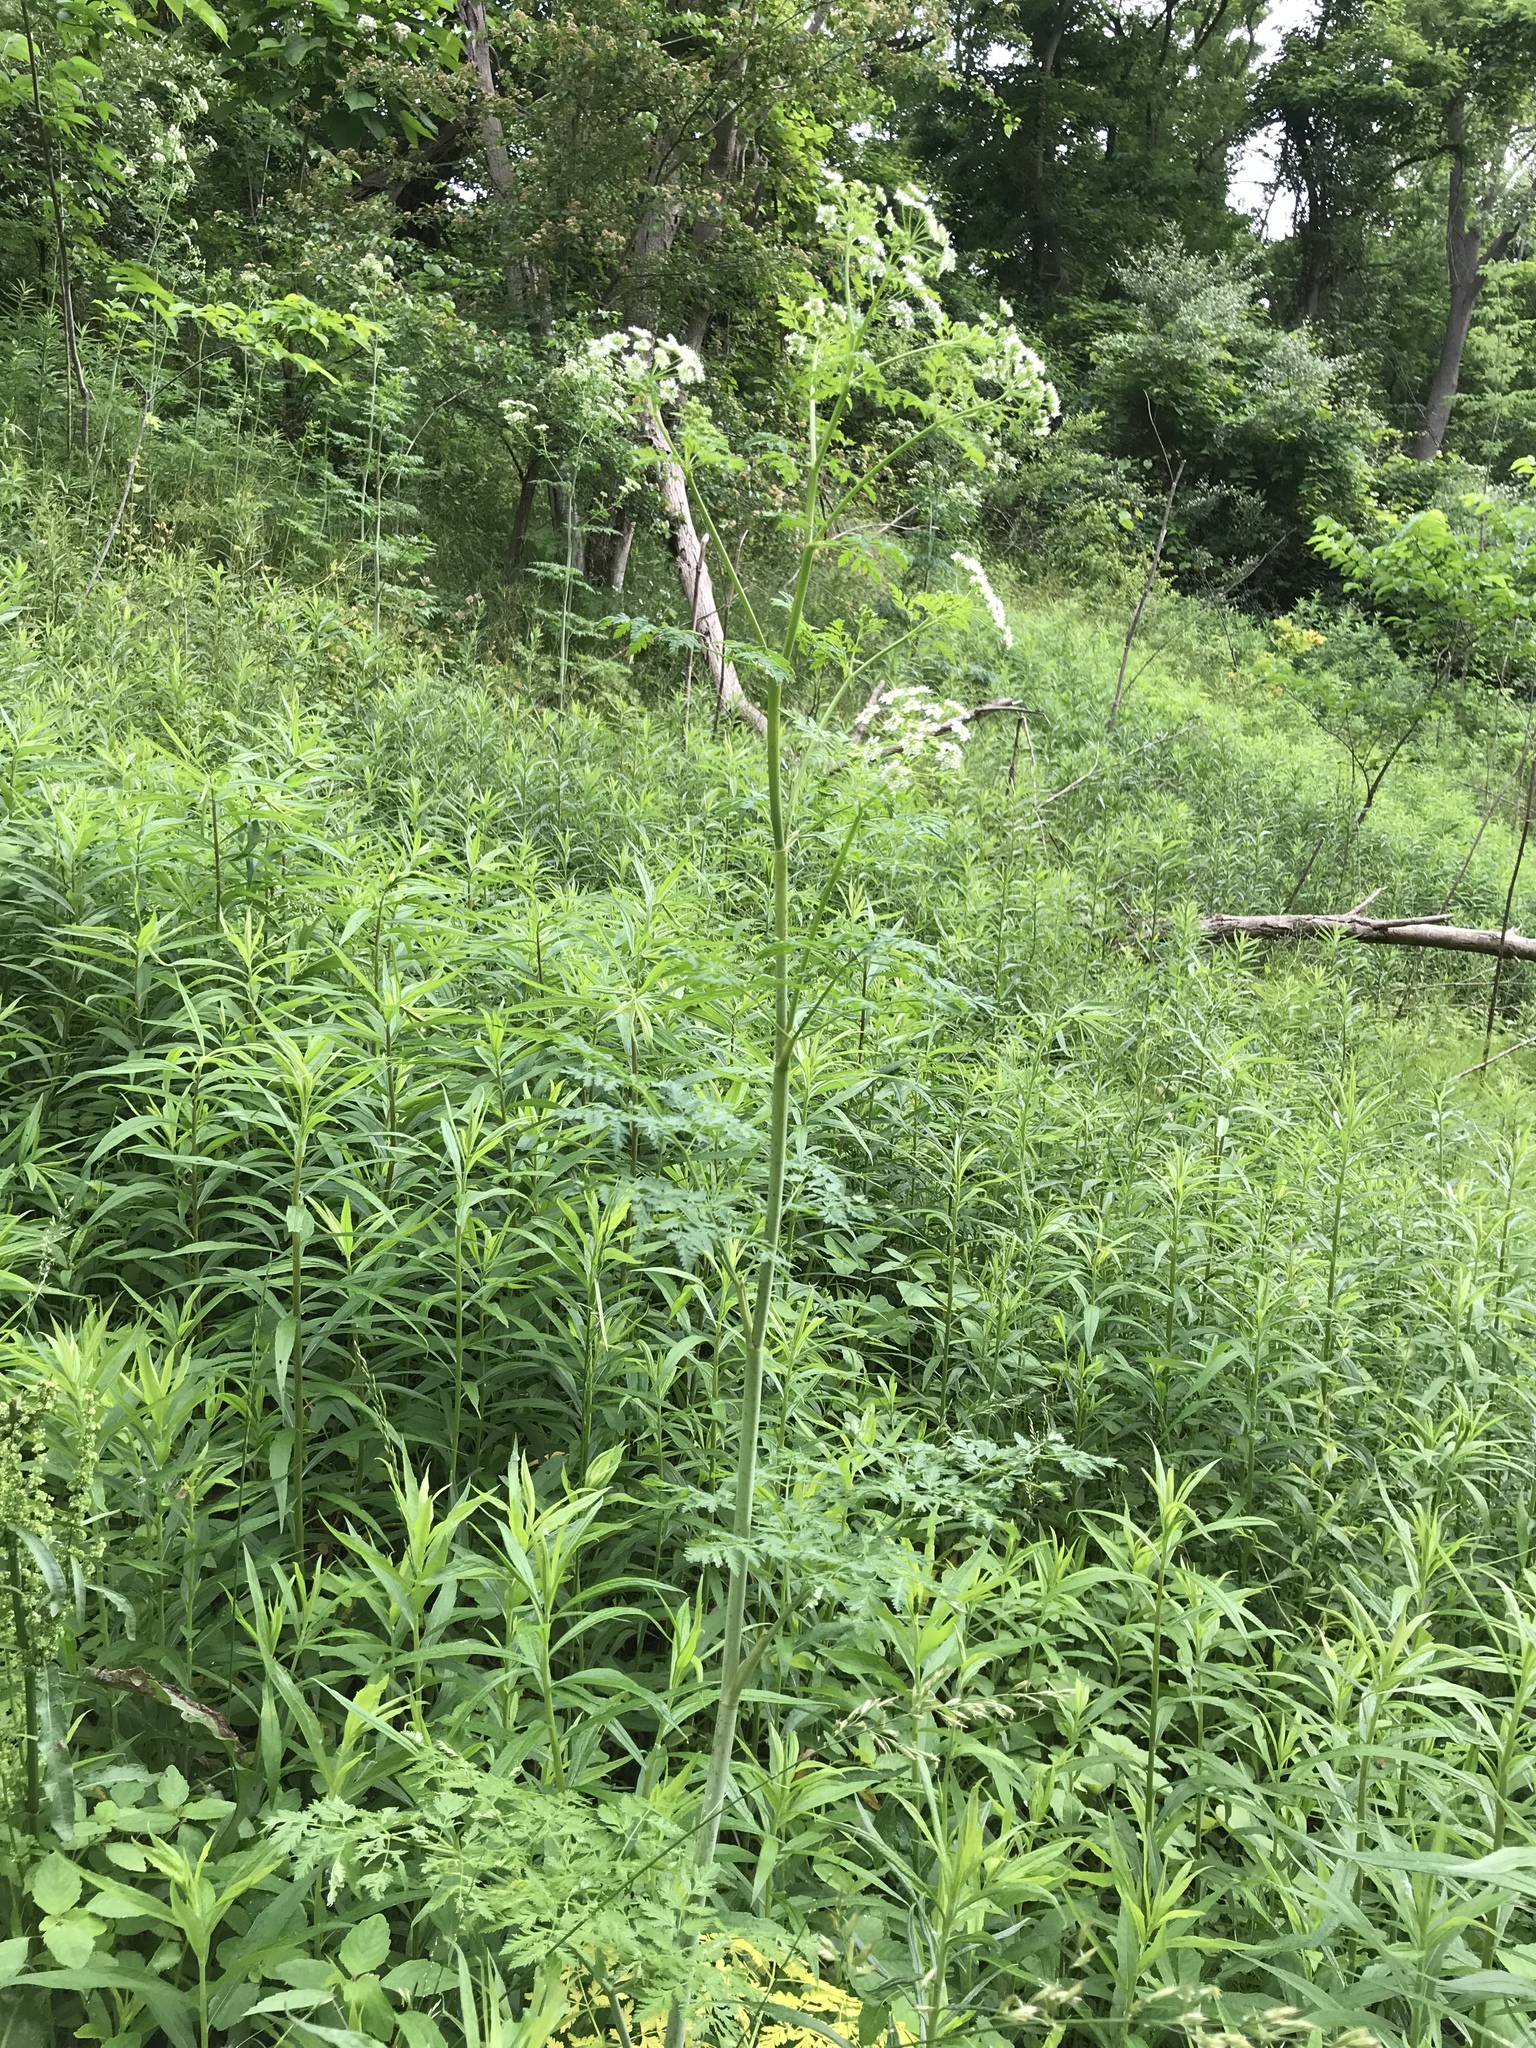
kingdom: Plantae
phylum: Tracheophyta
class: Magnoliopsida
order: Apiales
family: Apiaceae
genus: Conium
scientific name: Conium maculatum
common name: Hemlock
